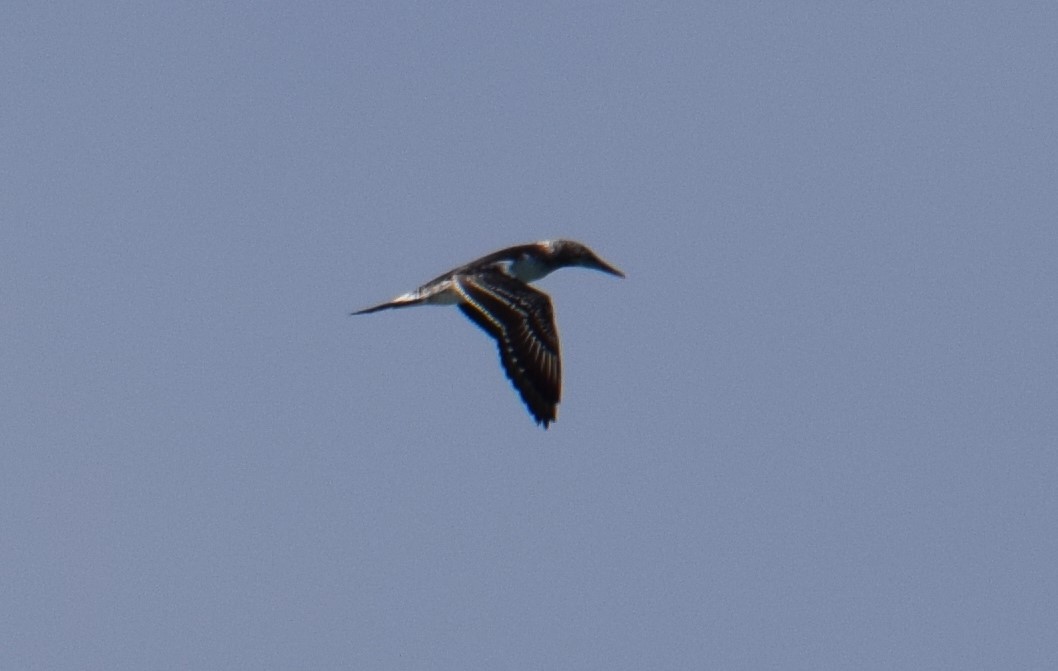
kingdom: Animalia
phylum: Chordata
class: Aves
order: Suliformes
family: Sulidae
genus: Morus
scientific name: Morus serrator
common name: Australasian gannet
